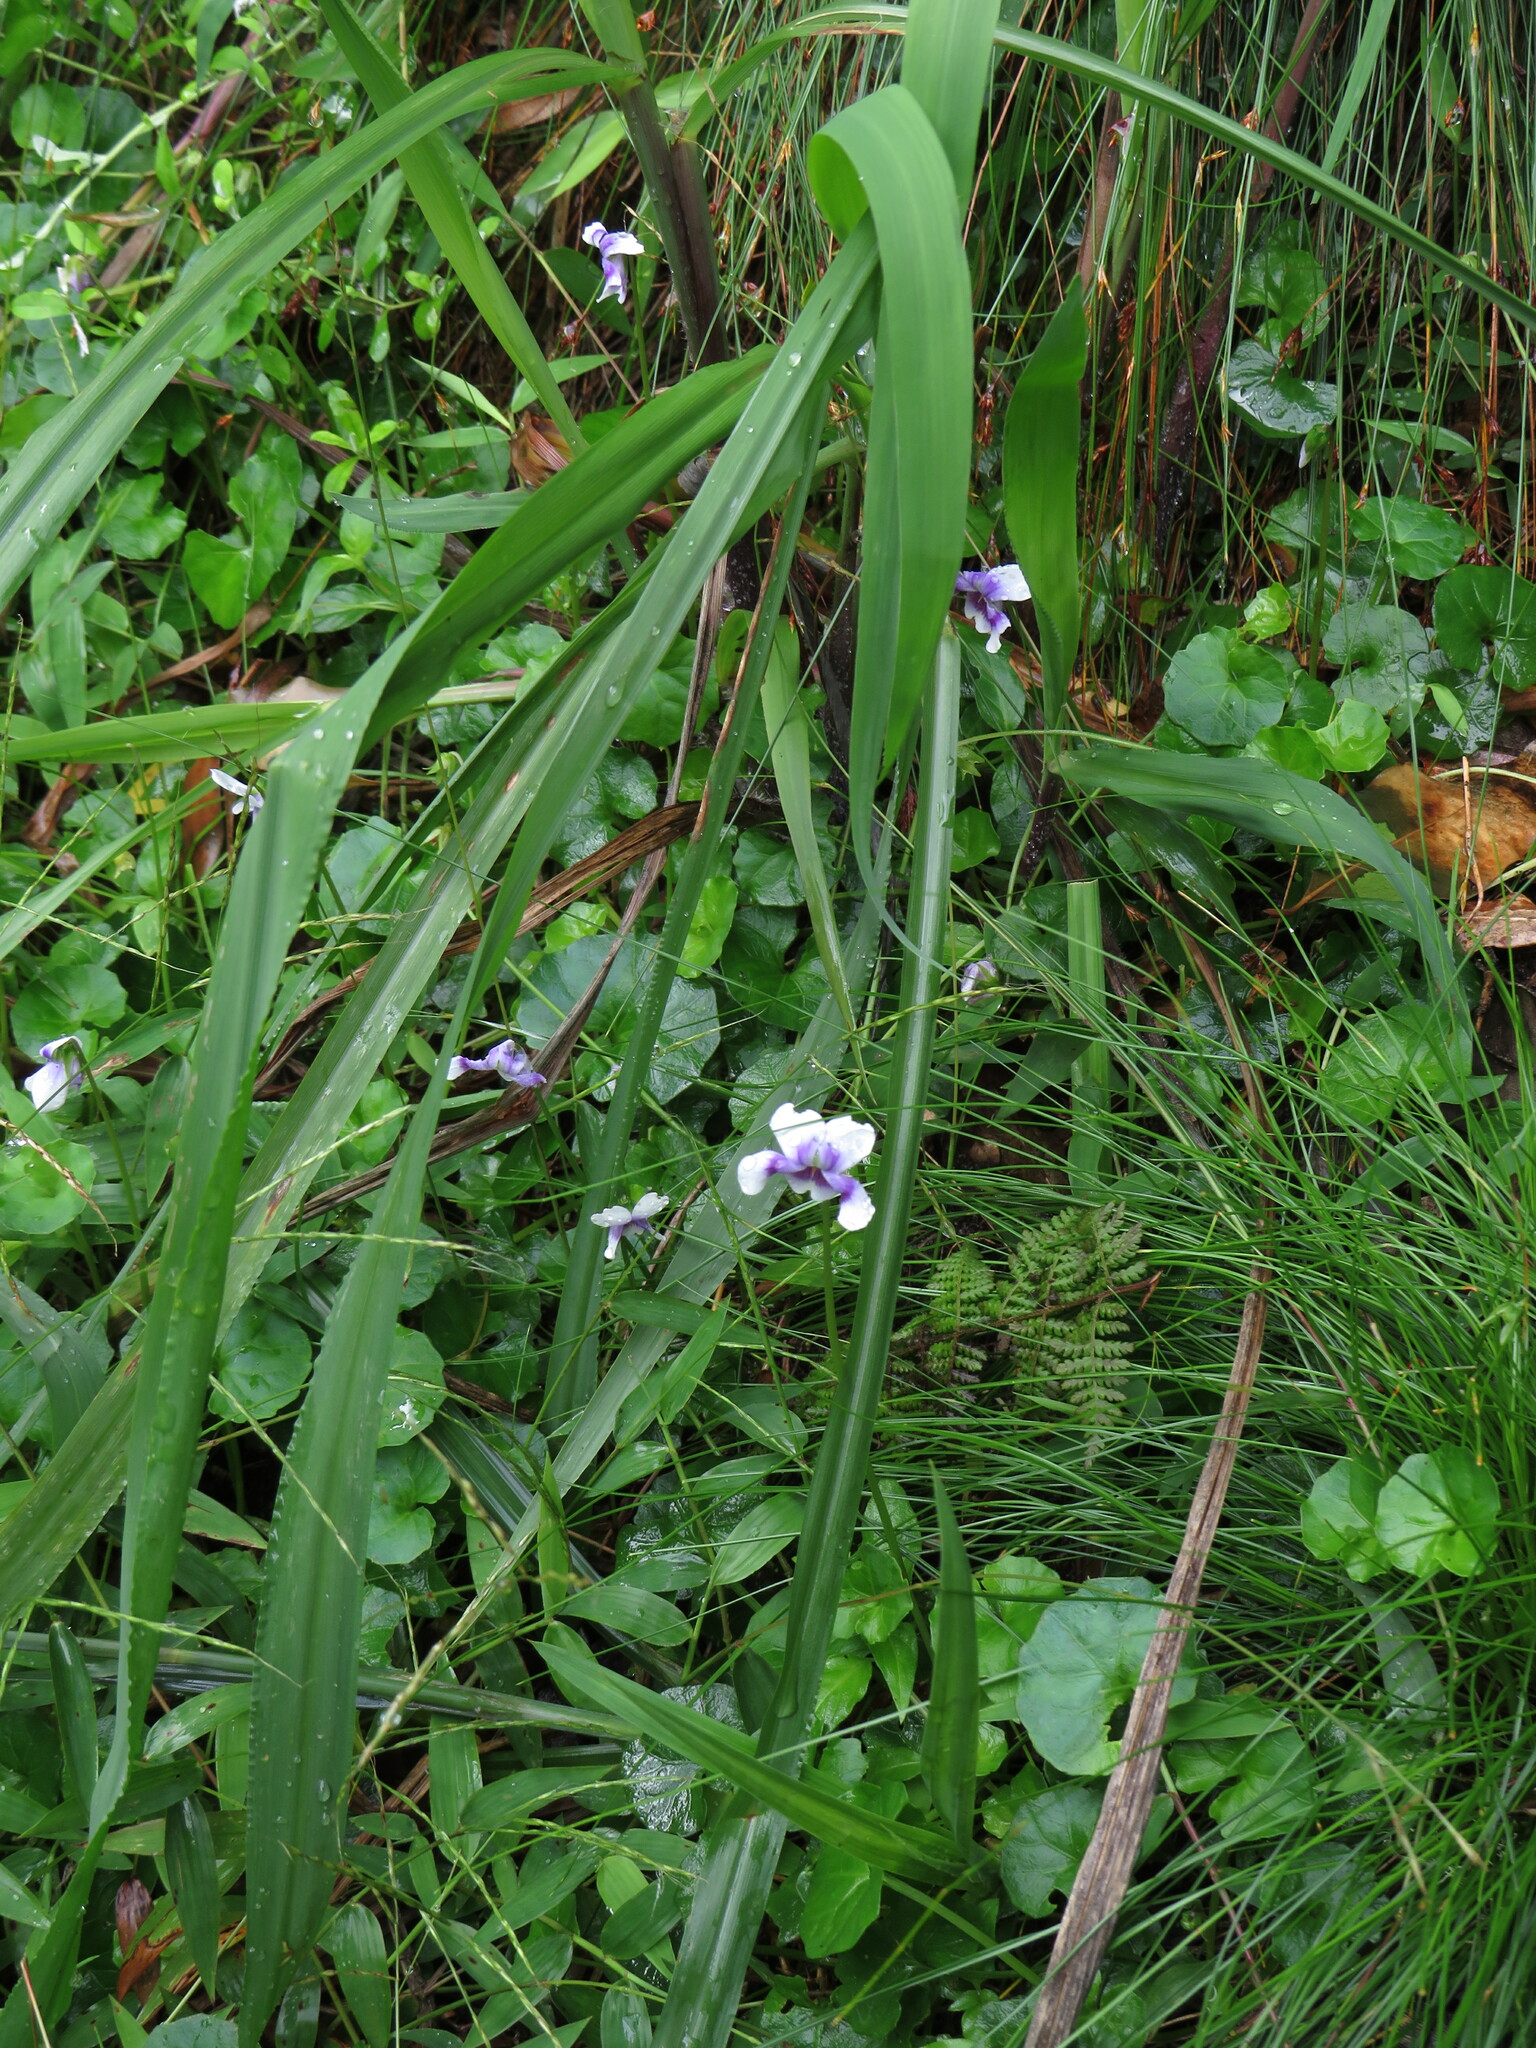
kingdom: Plantae
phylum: Tracheophyta
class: Magnoliopsida
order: Malpighiales
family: Violaceae
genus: Viola
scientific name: Viola banksii
